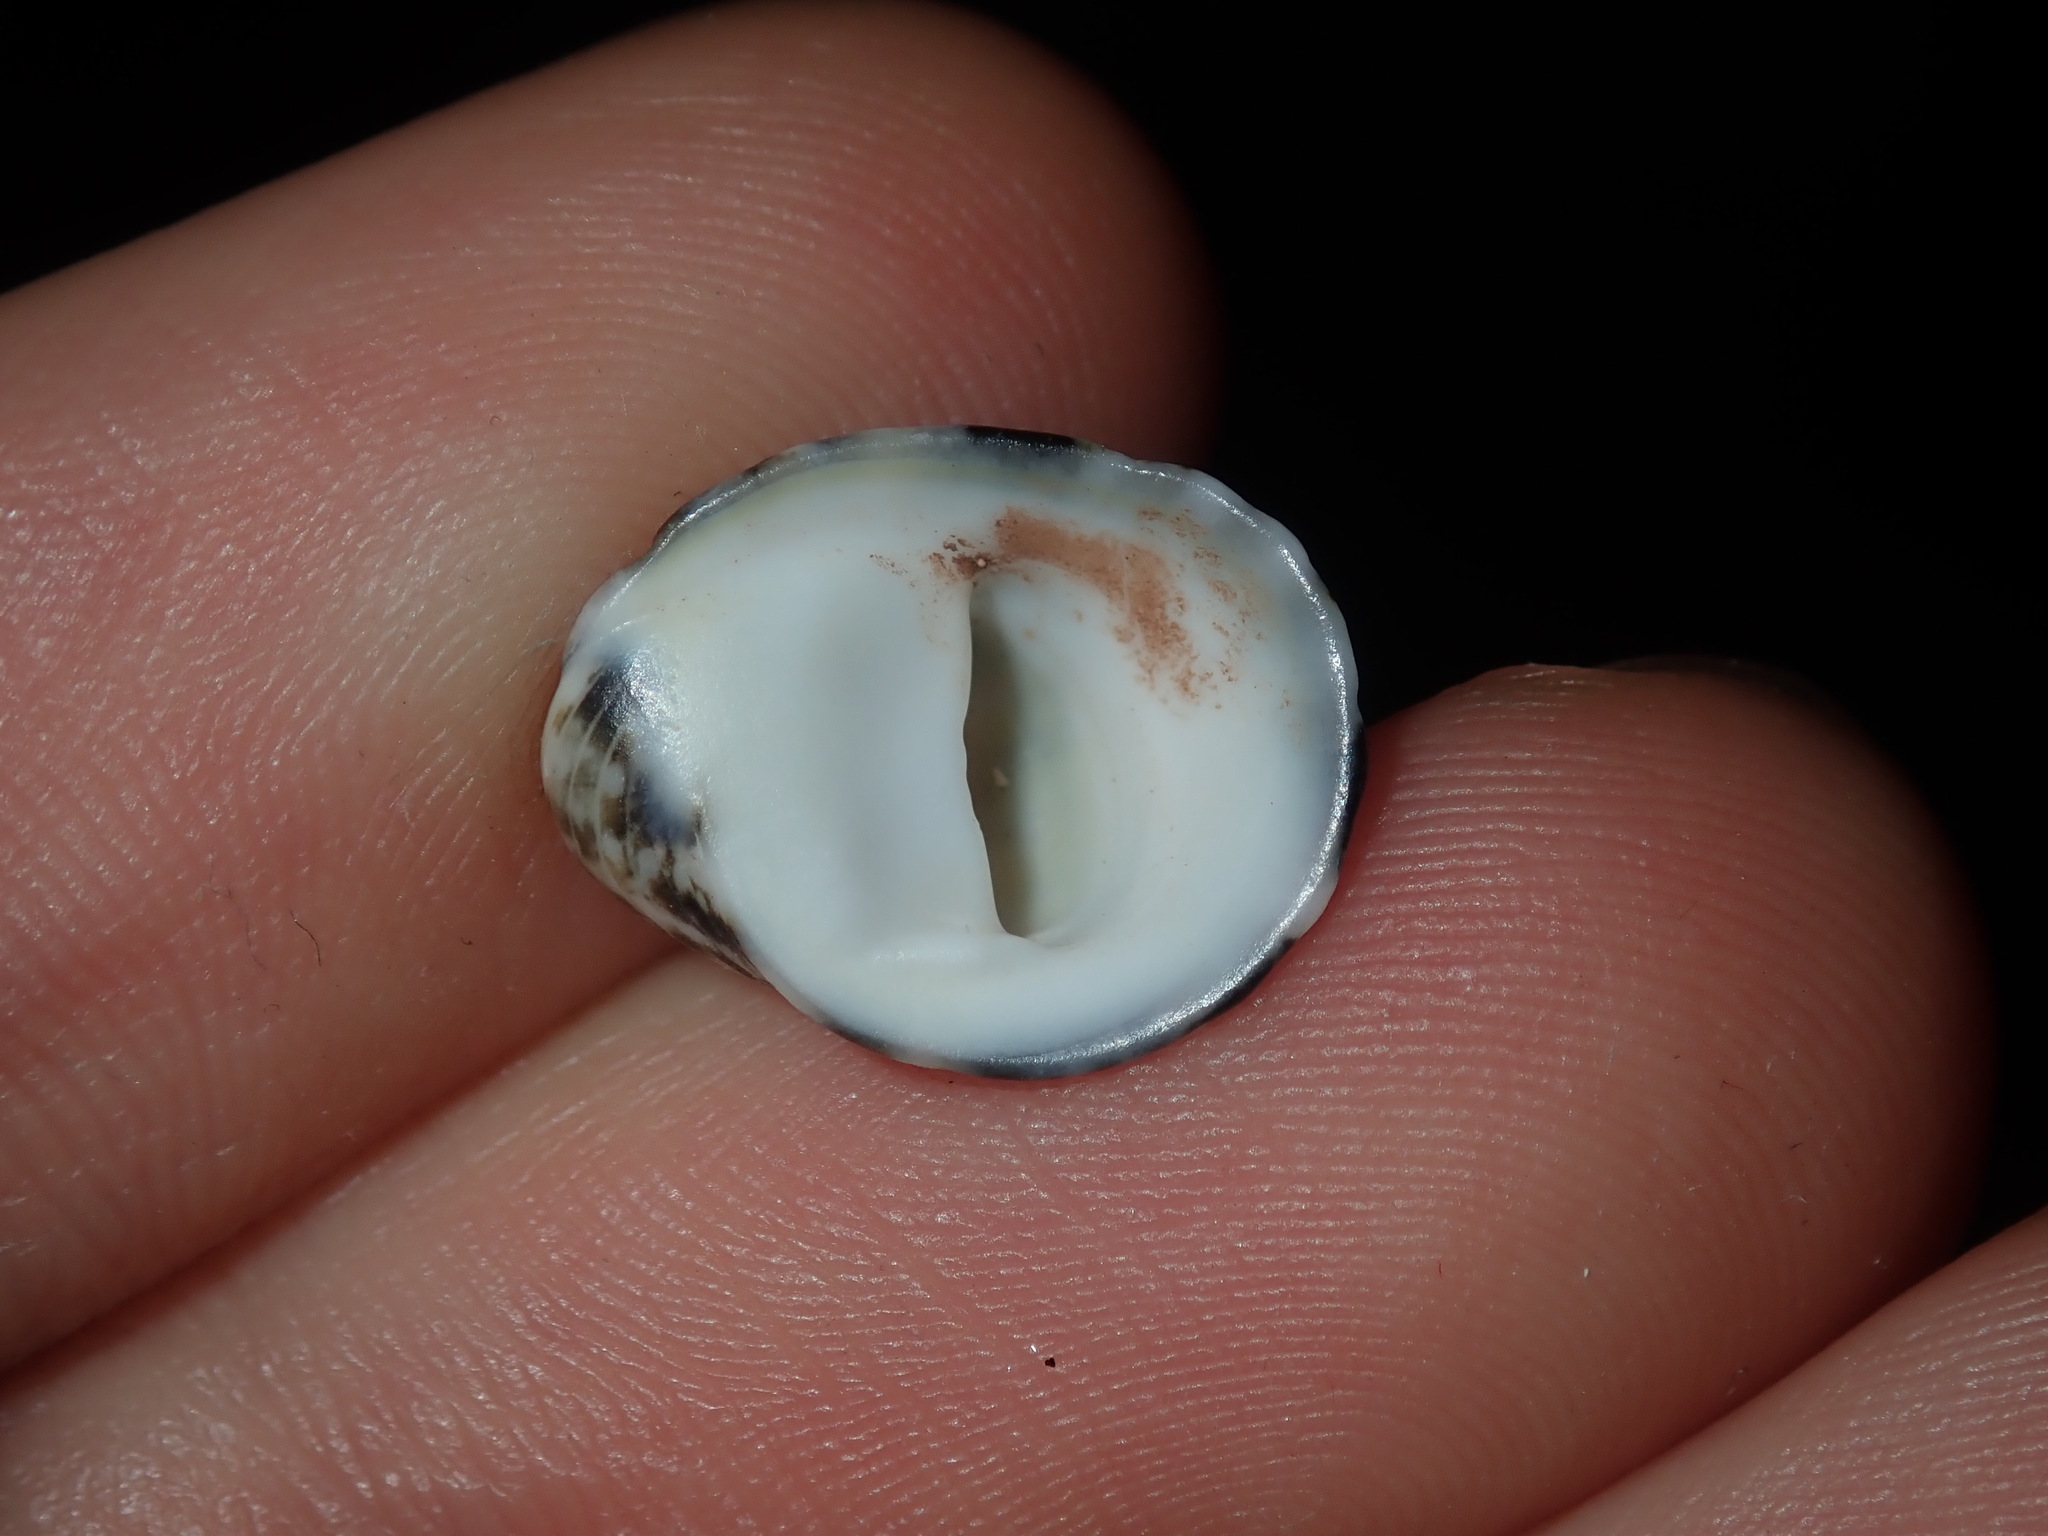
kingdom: Animalia
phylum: Mollusca
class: Gastropoda
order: Cycloneritida
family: Neritidae
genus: Nerita
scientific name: Nerita albicilla
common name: Blotched nerite
